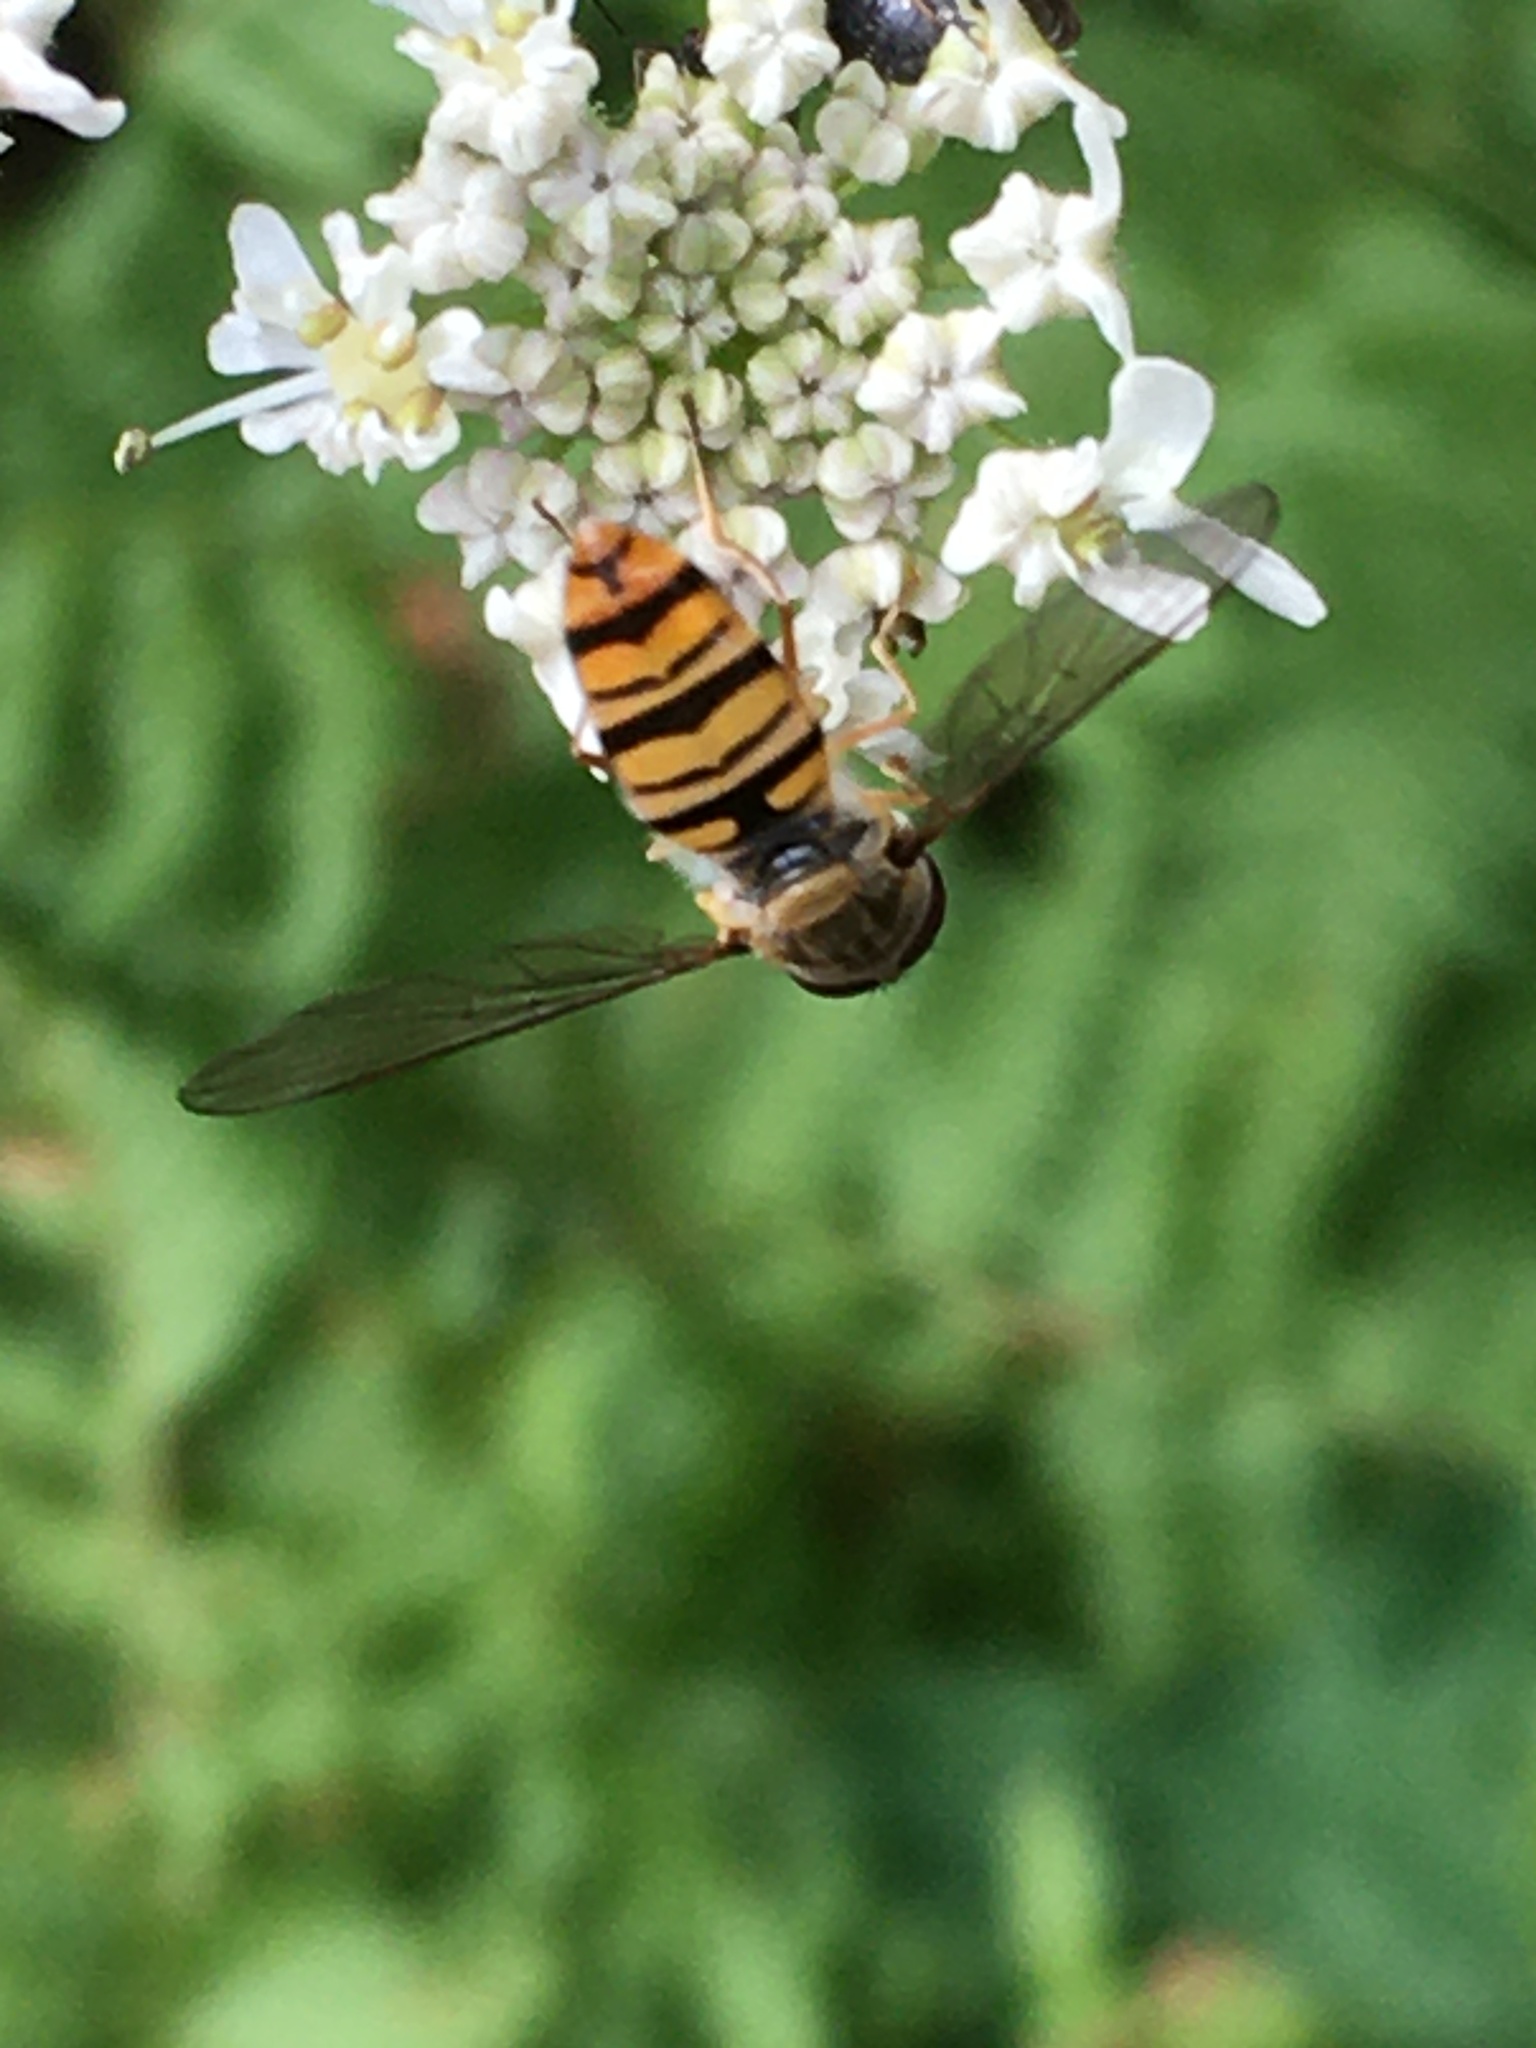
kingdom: Animalia
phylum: Arthropoda
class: Insecta
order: Diptera
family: Syrphidae
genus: Episyrphus
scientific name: Episyrphus balteatus
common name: Marmalade hoverfly
